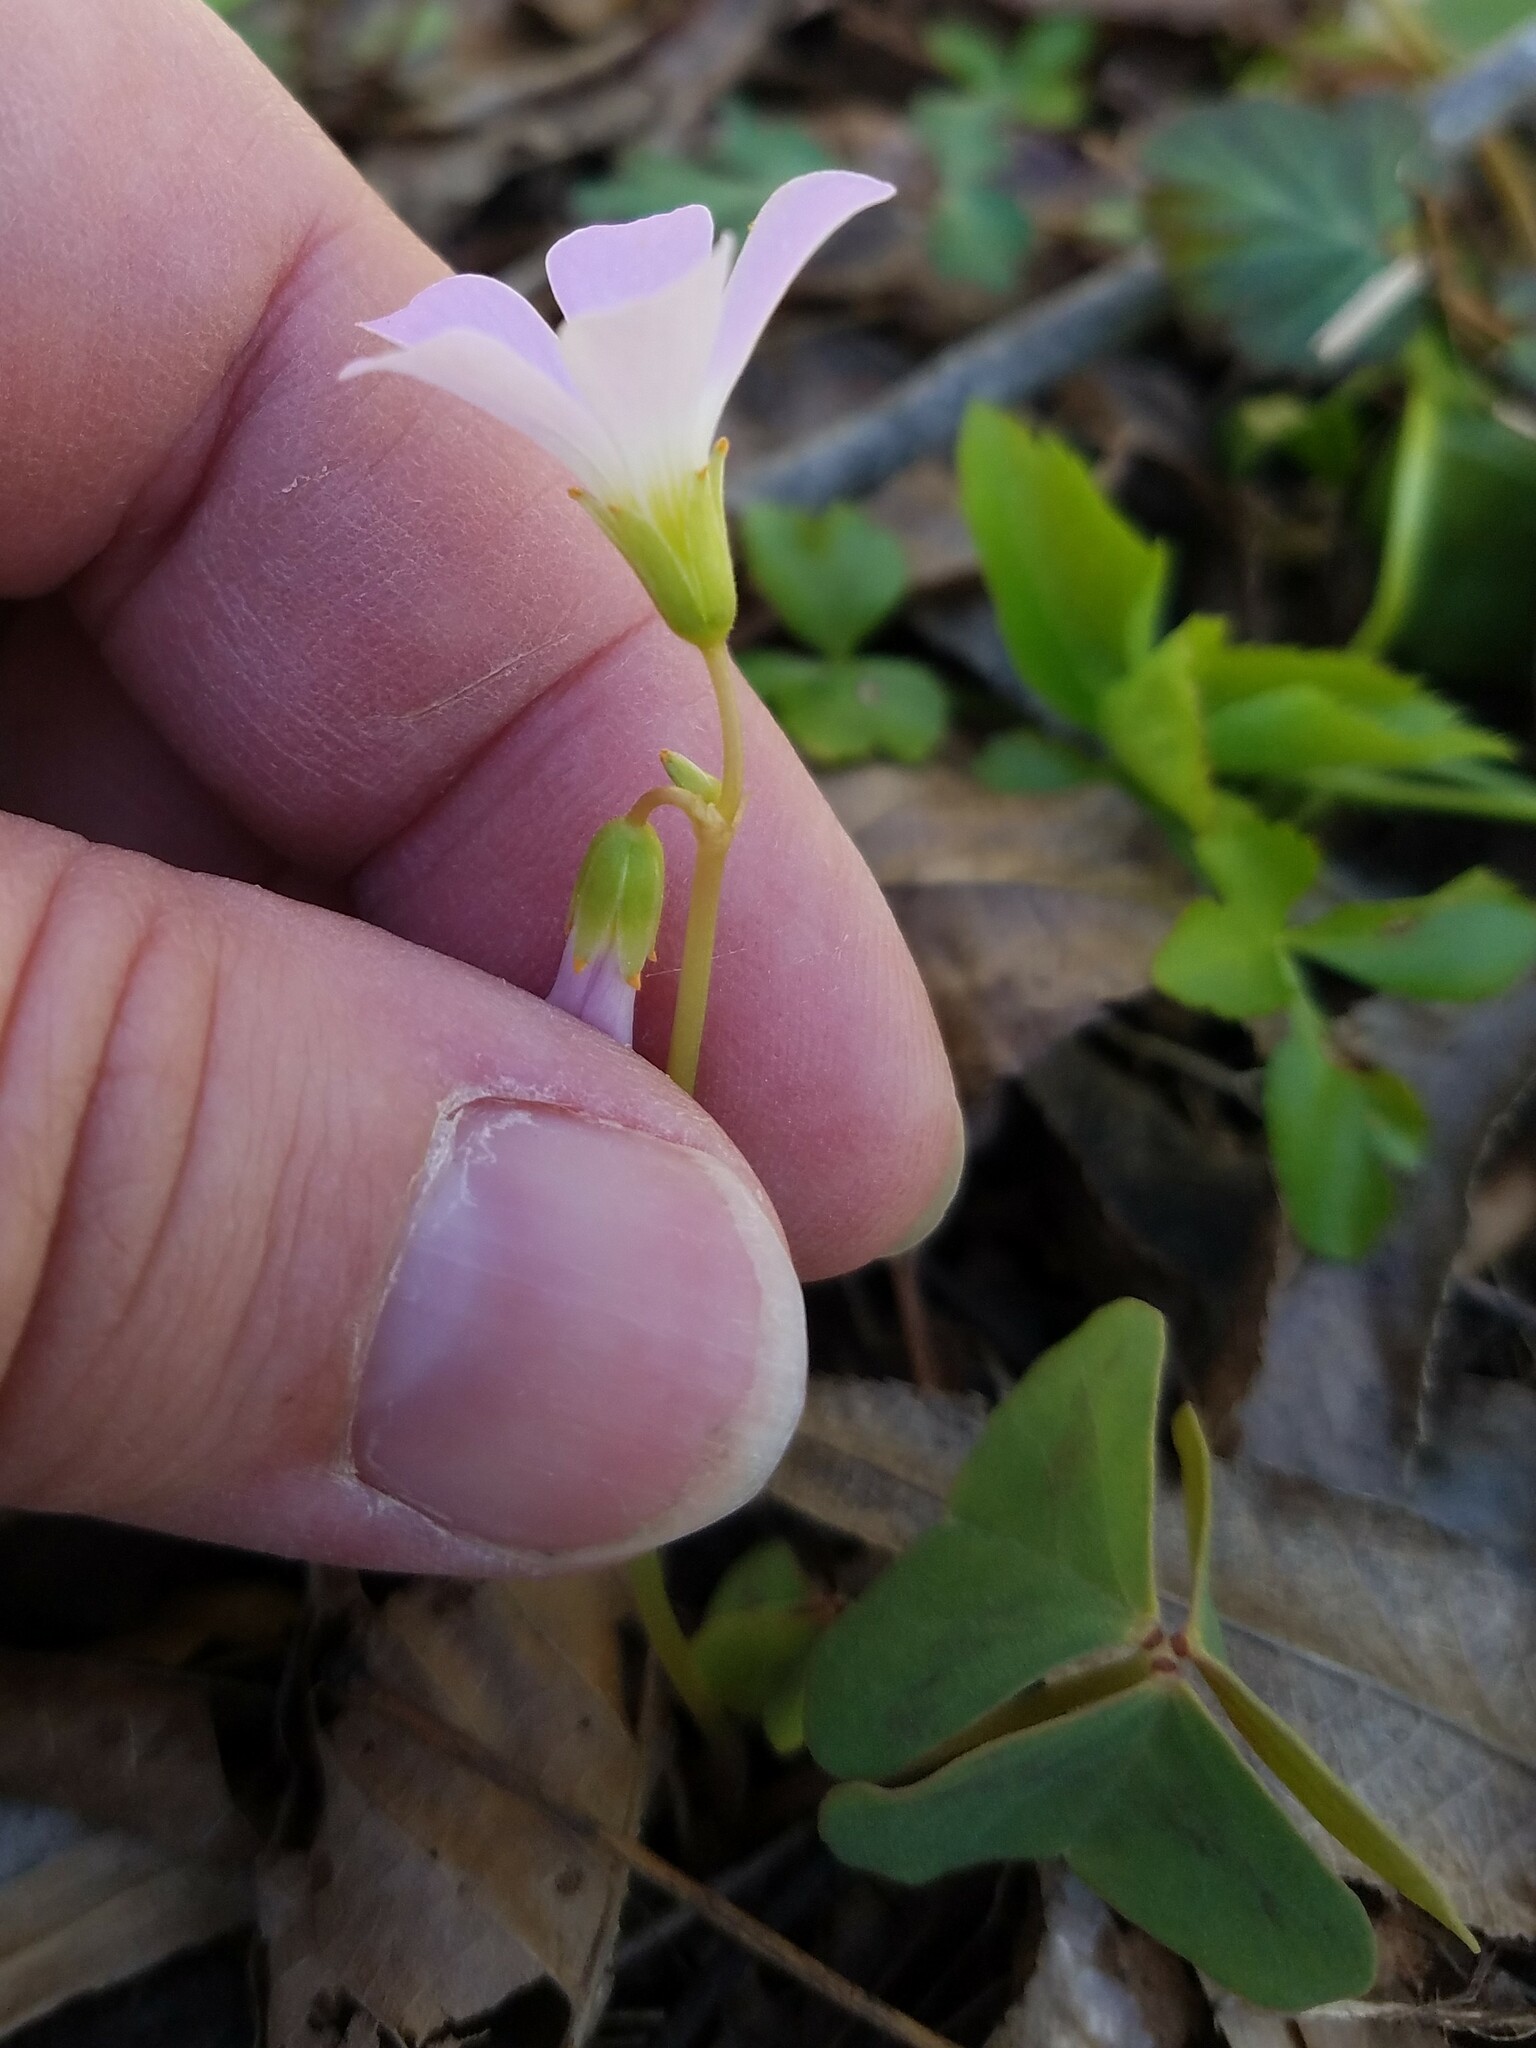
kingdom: Plantae
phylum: Tracheophyta
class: Magnoliopsida
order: Oxalidales
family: Oxalidaceae
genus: Oxalis
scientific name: Oxalis violacea
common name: Violet wood-sorrel
